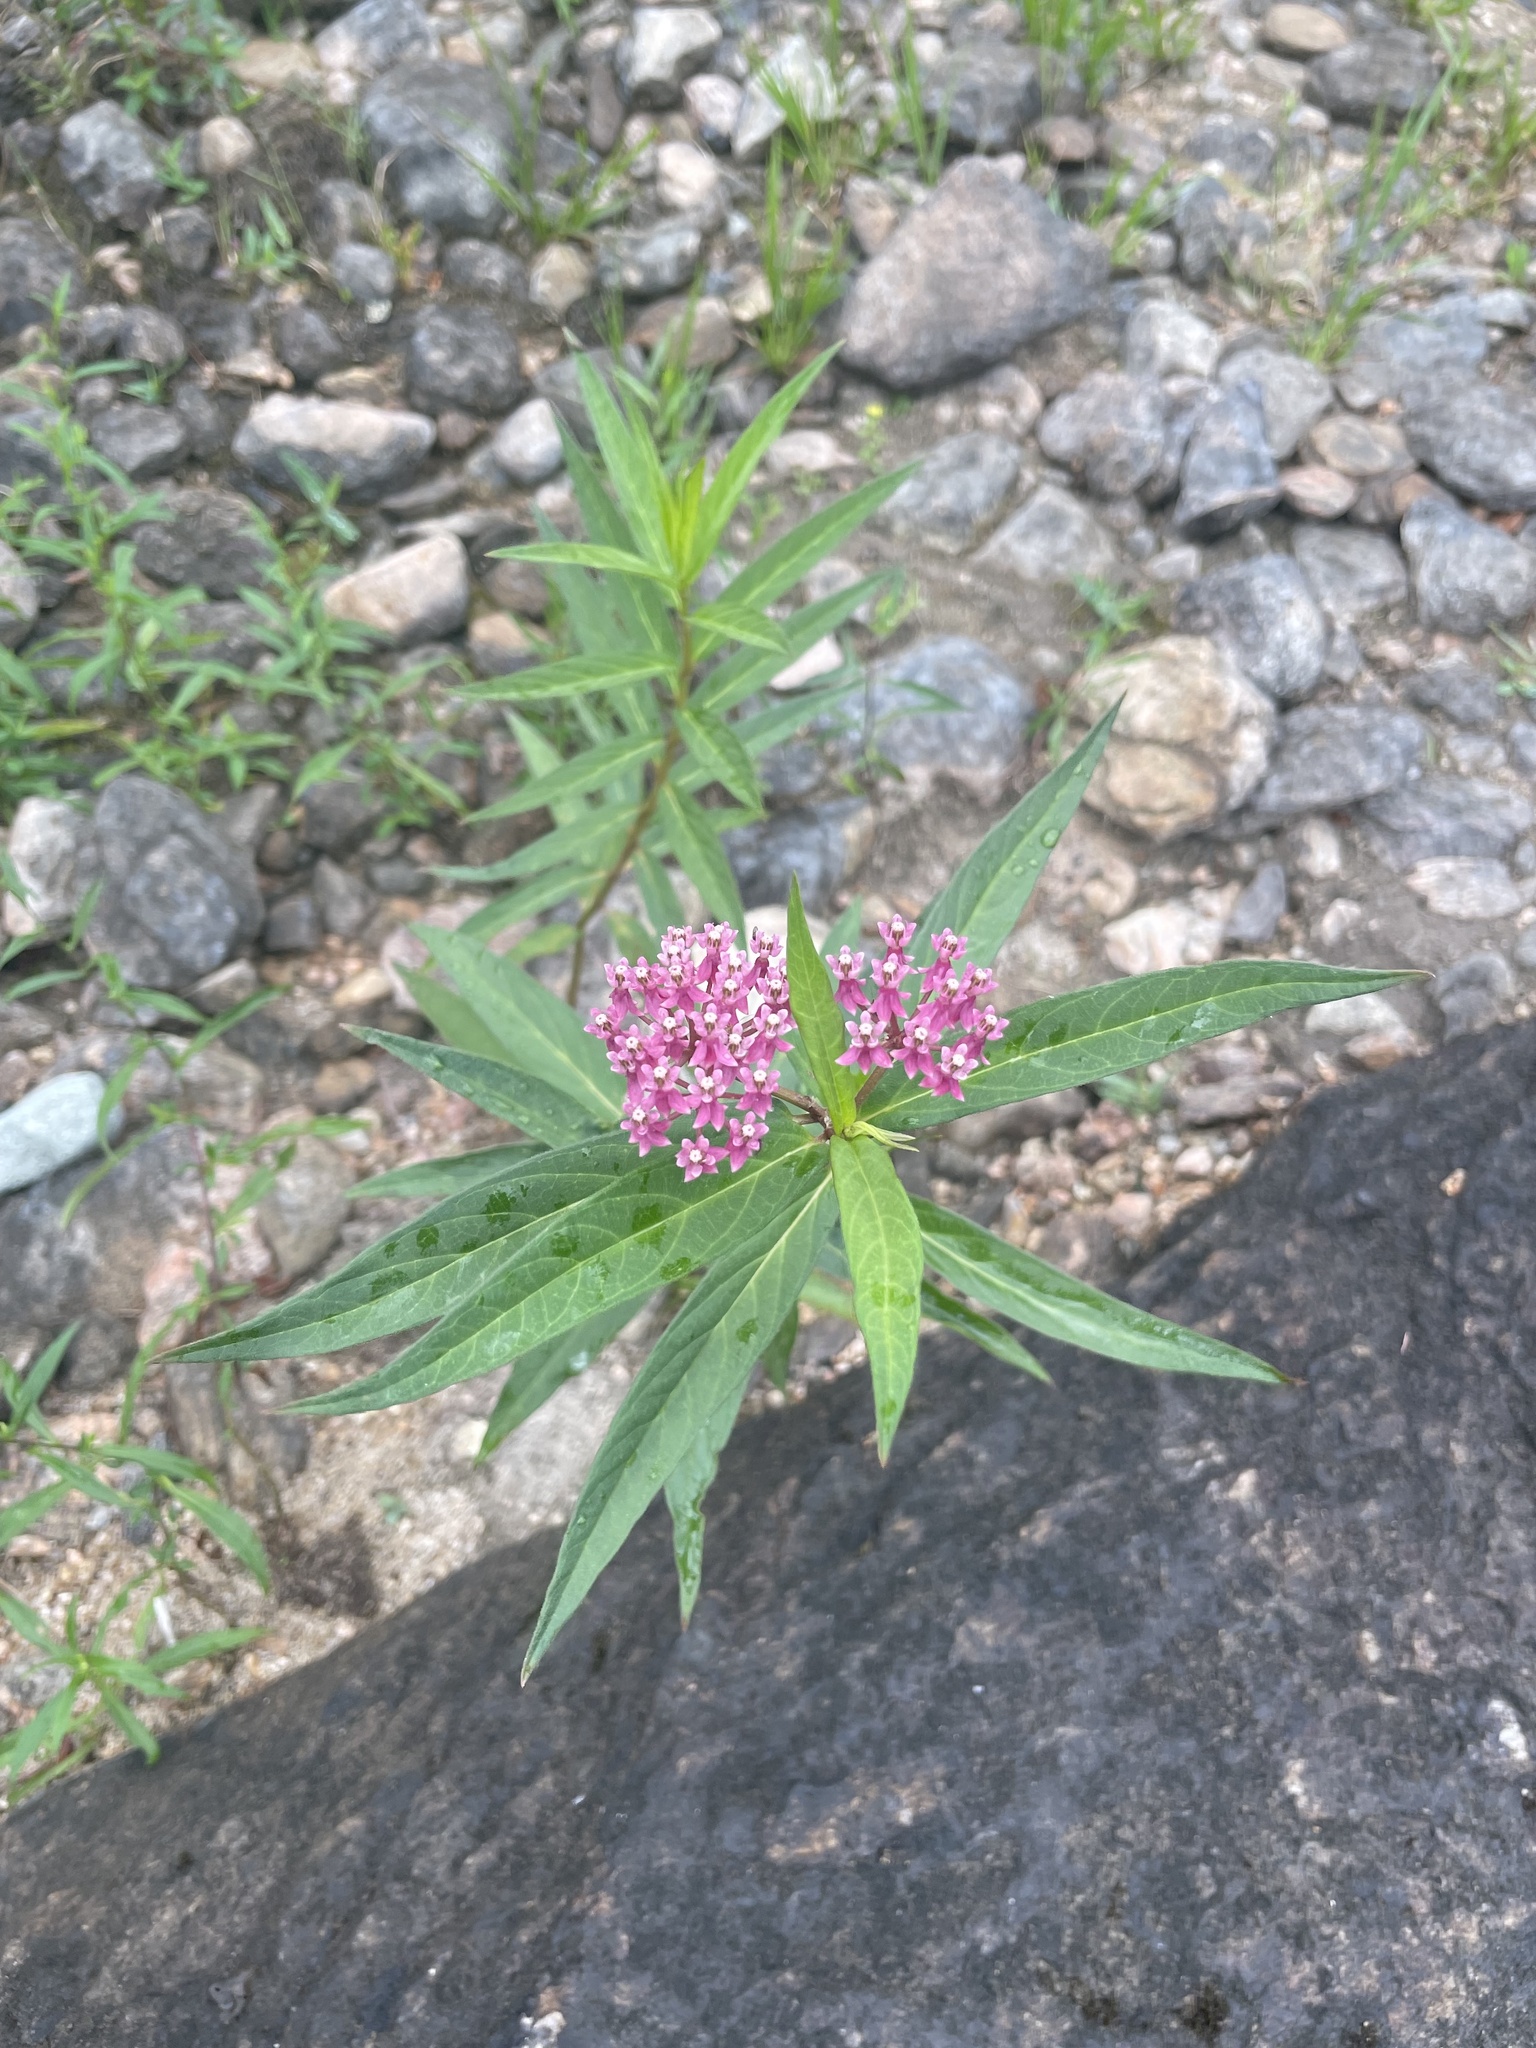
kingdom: Plantae
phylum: Tracheophyta
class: Magnoliopsida
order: Gentianales
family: Apocynaceae
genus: Asclepias
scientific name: Asclepias incarnata
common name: Swamp milkweed
